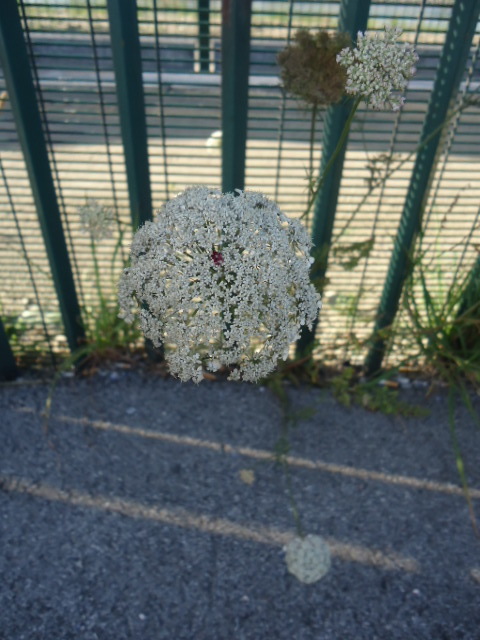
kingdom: Plantae
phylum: Tracheophyta
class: Magnoliopsida
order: Apiales
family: Apiaceae
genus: Daucus
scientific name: Daucus carota
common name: Wild carrot
